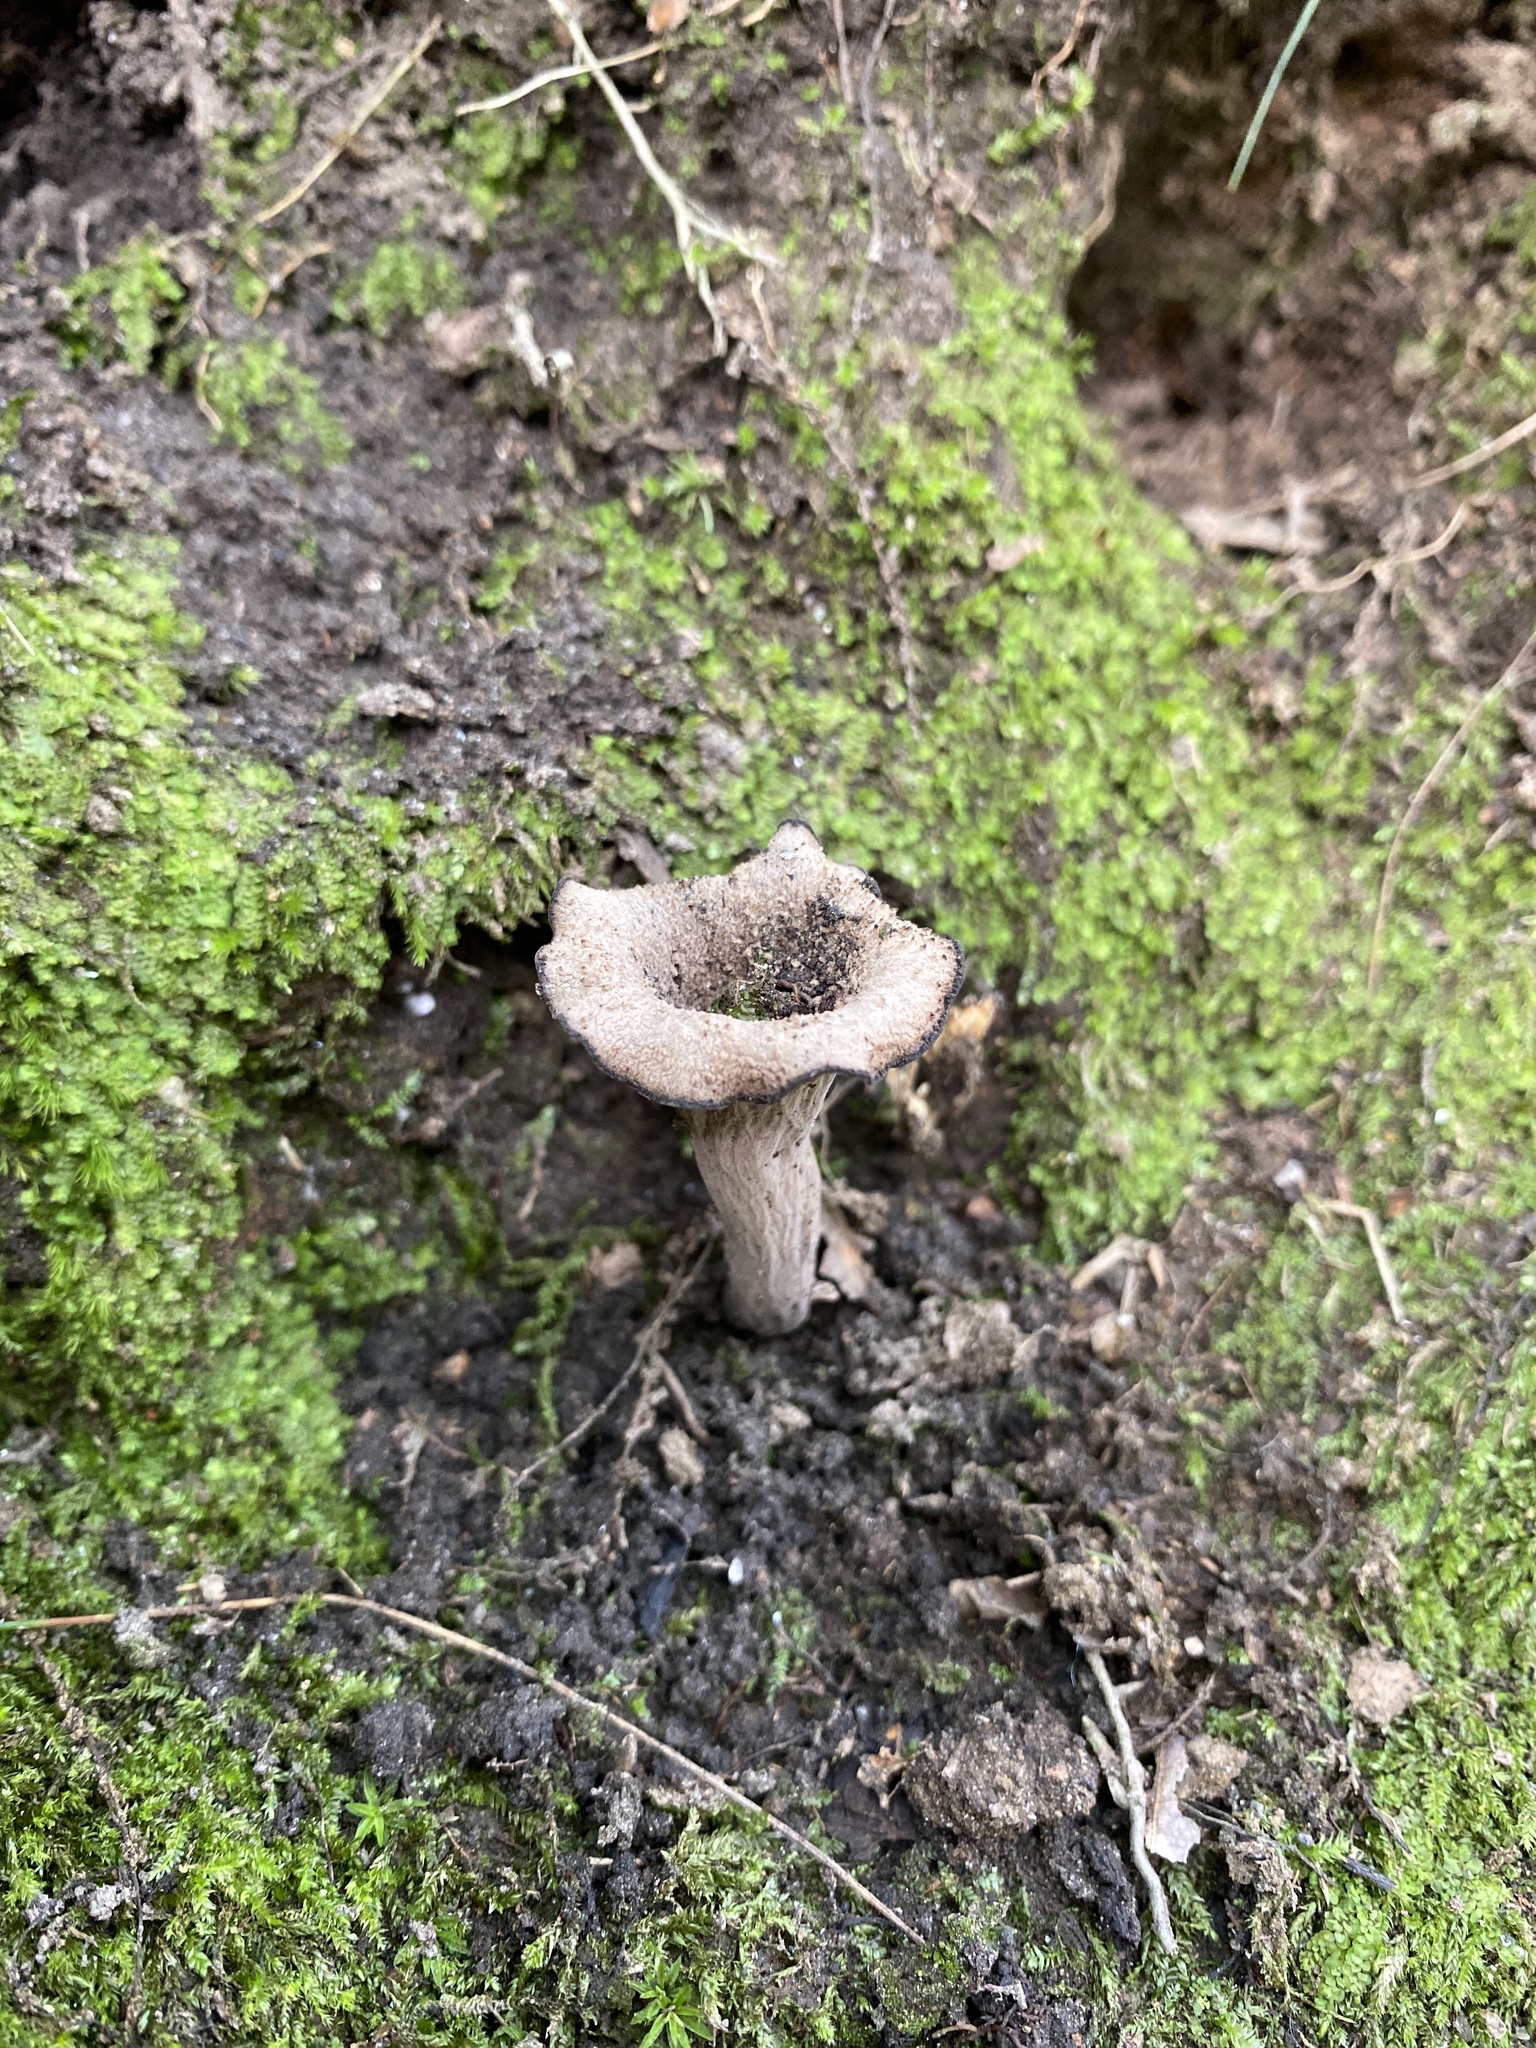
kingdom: Fungi
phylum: Basidiomycota
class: Agaricomycetes
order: Cantharellales
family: Hydnaceae
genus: Craterellus
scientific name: Craterellus cornucopioides
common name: Horn of plenty
